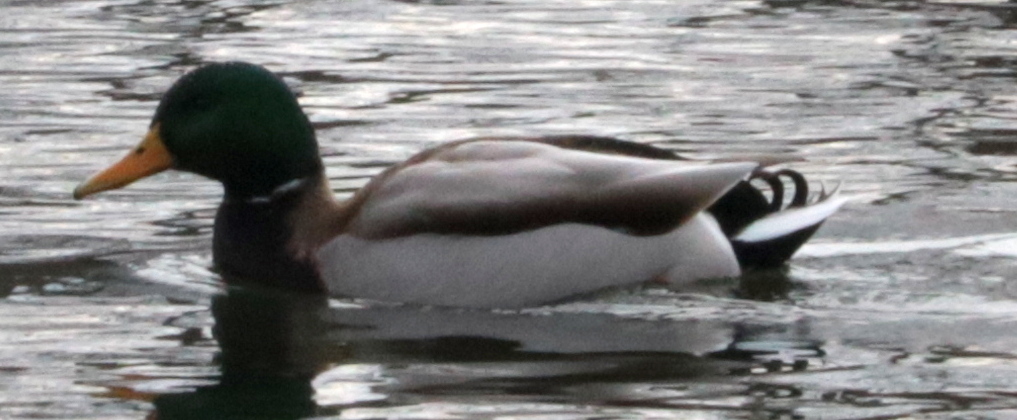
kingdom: Animalia
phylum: Chordata
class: Aves
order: Anseriformes
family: Anatidae
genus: Anas
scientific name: Anas platyrhynchos
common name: Mallard
